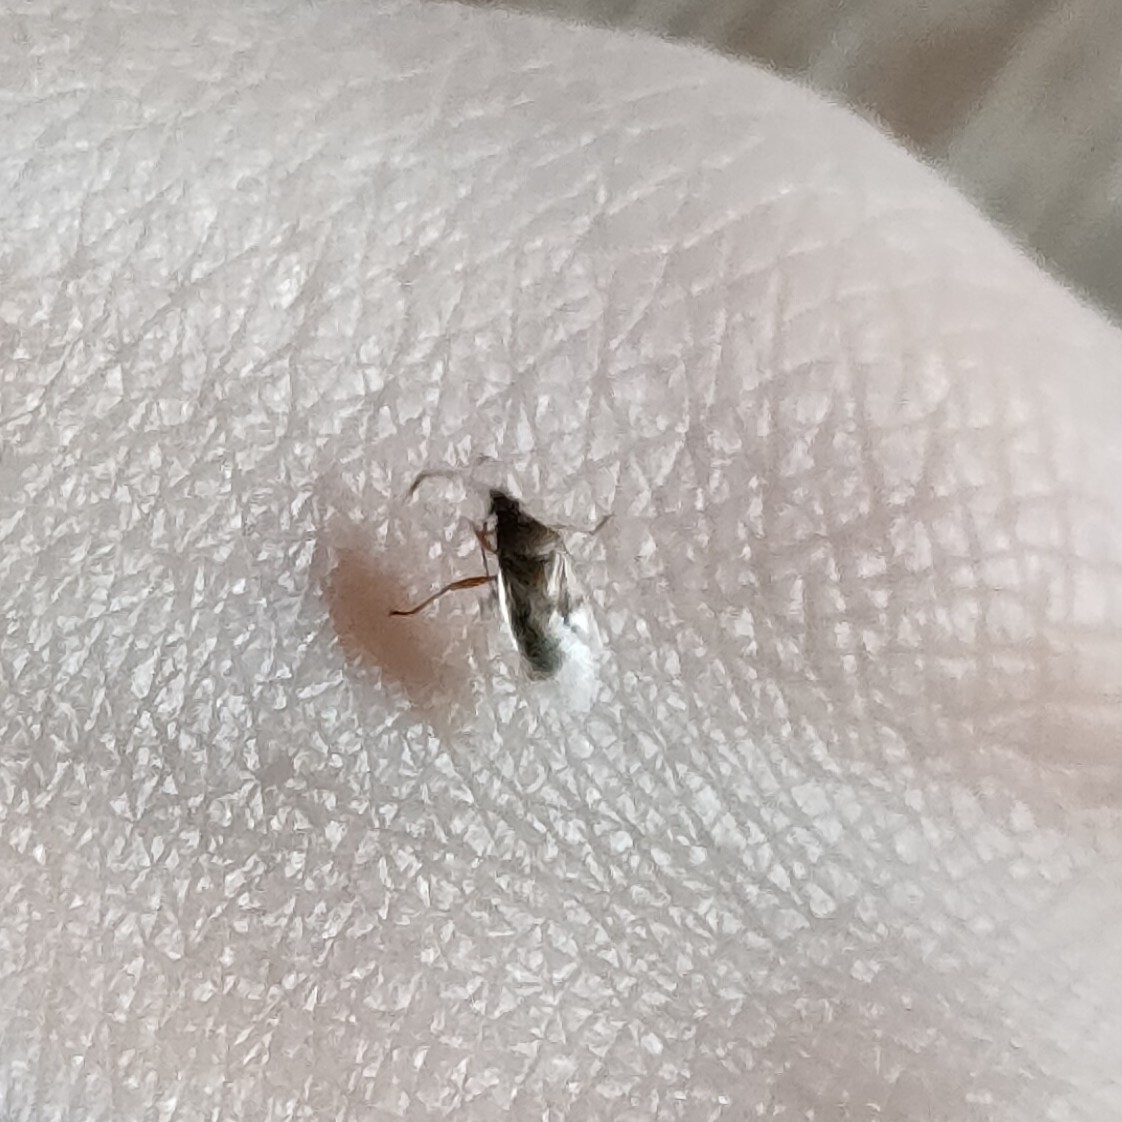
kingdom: Animalia
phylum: Arthropoda
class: Insecta
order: Hemiptera
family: Lygaeidae
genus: Kleidocerys
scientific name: Kleidocerys resedae
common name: Birch catkin bug
